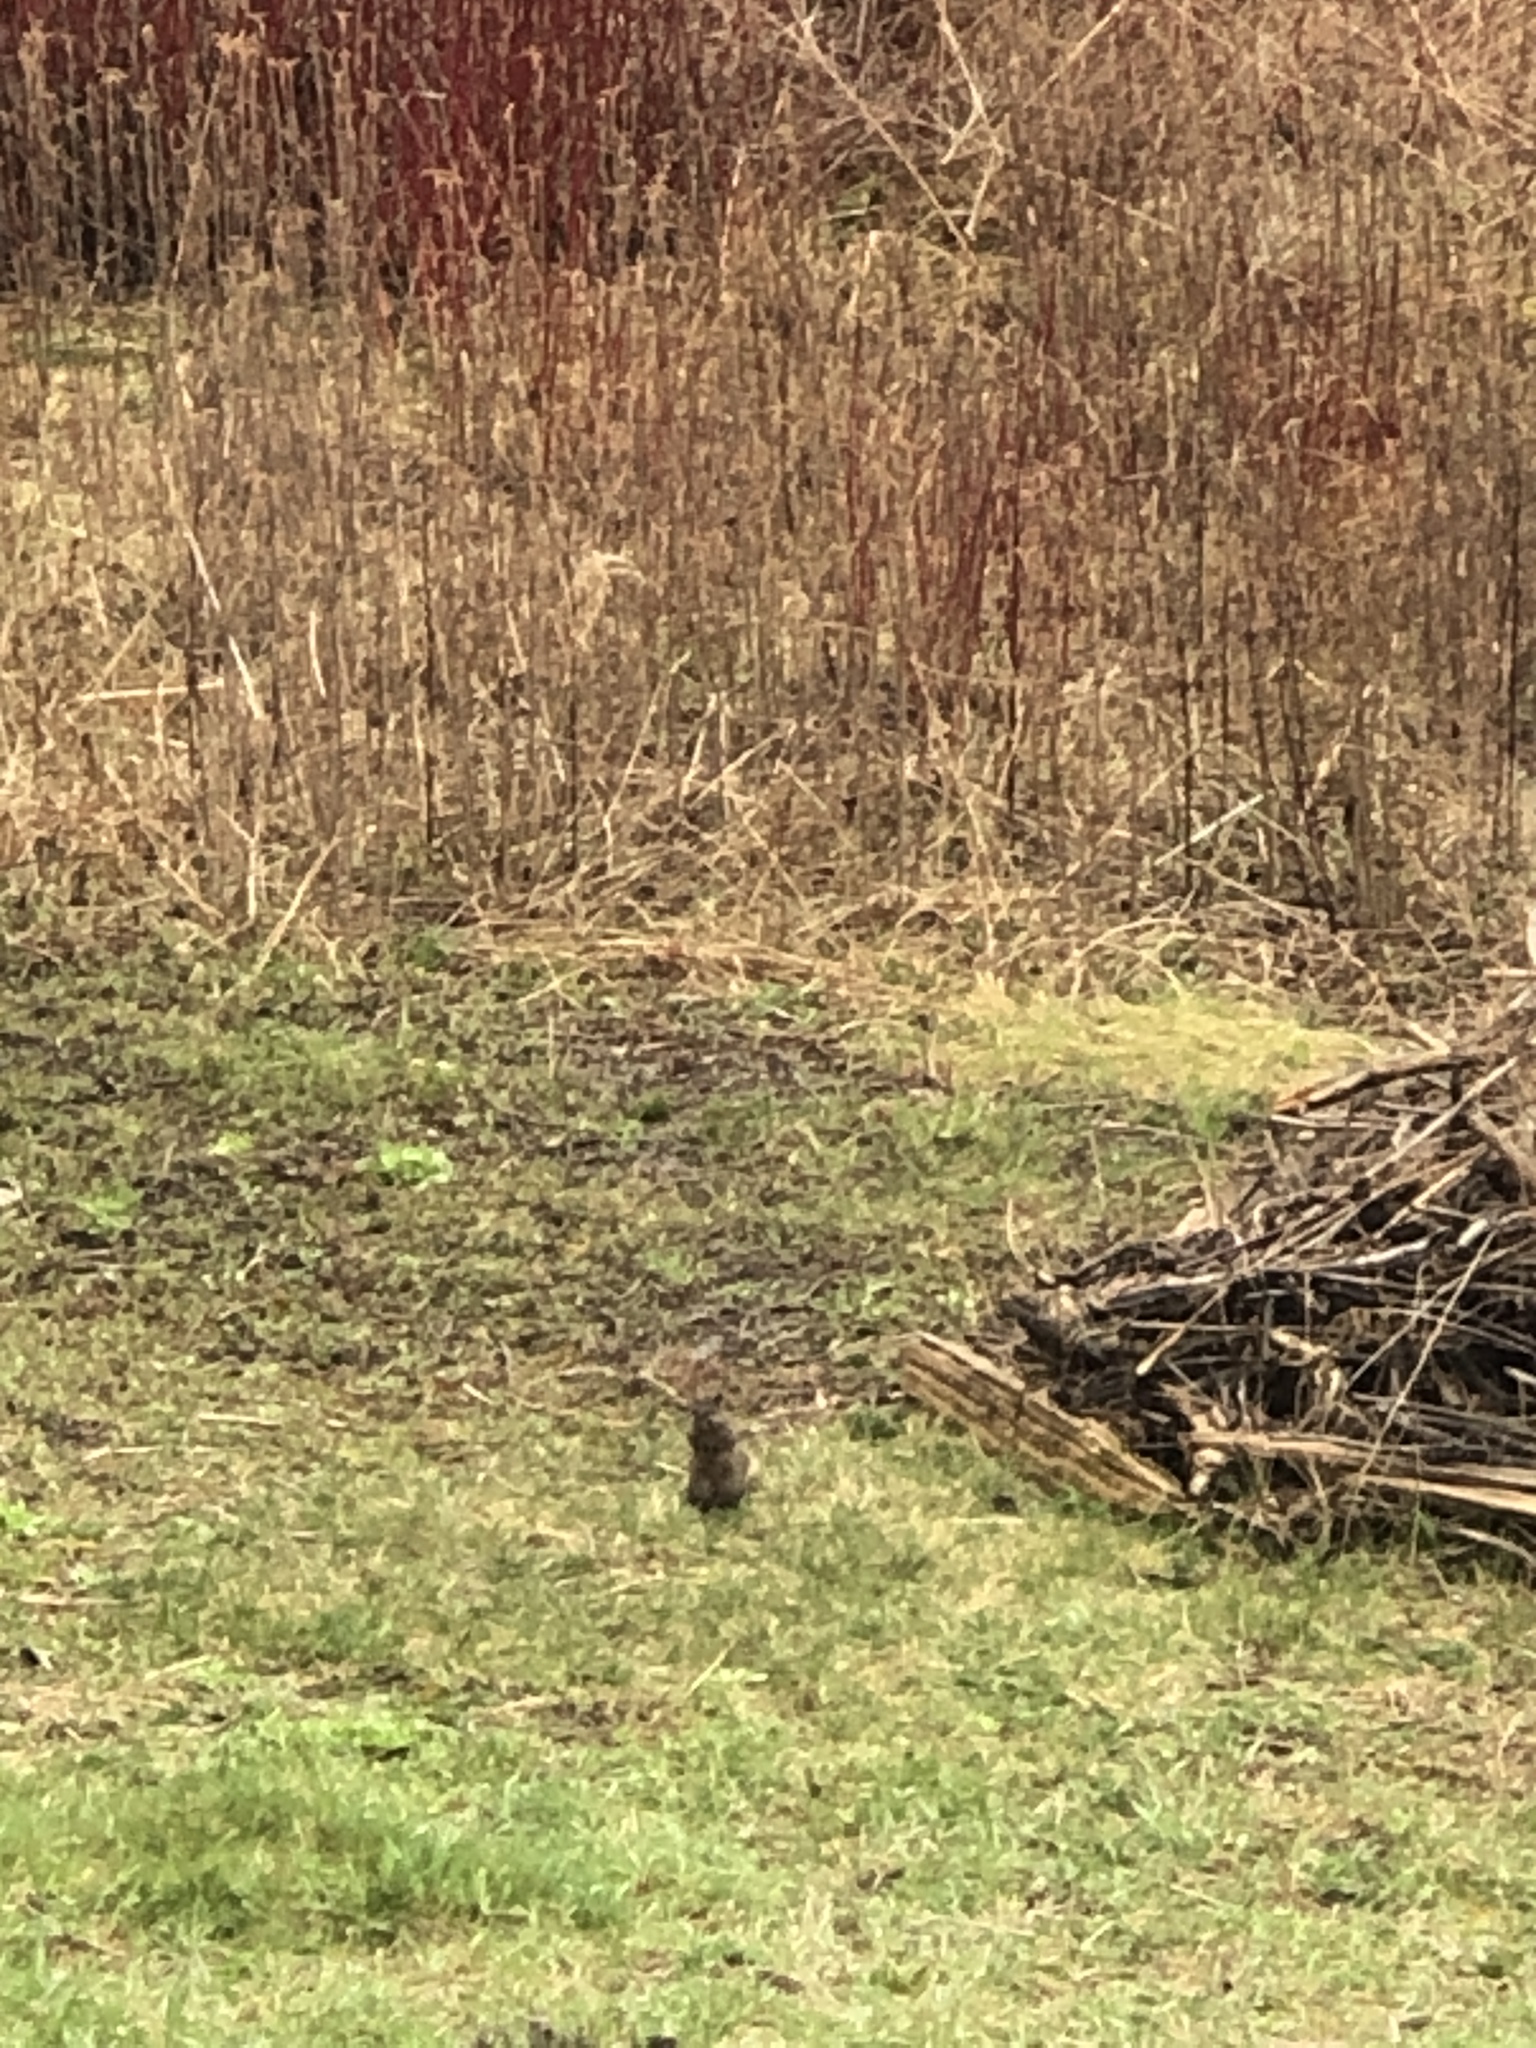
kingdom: Animalia
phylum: Chordata
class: Mammalia
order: Rodentia
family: Sciuridae
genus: Sciurus
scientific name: Sciurus carolinensis
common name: Eastern gray squirrel
